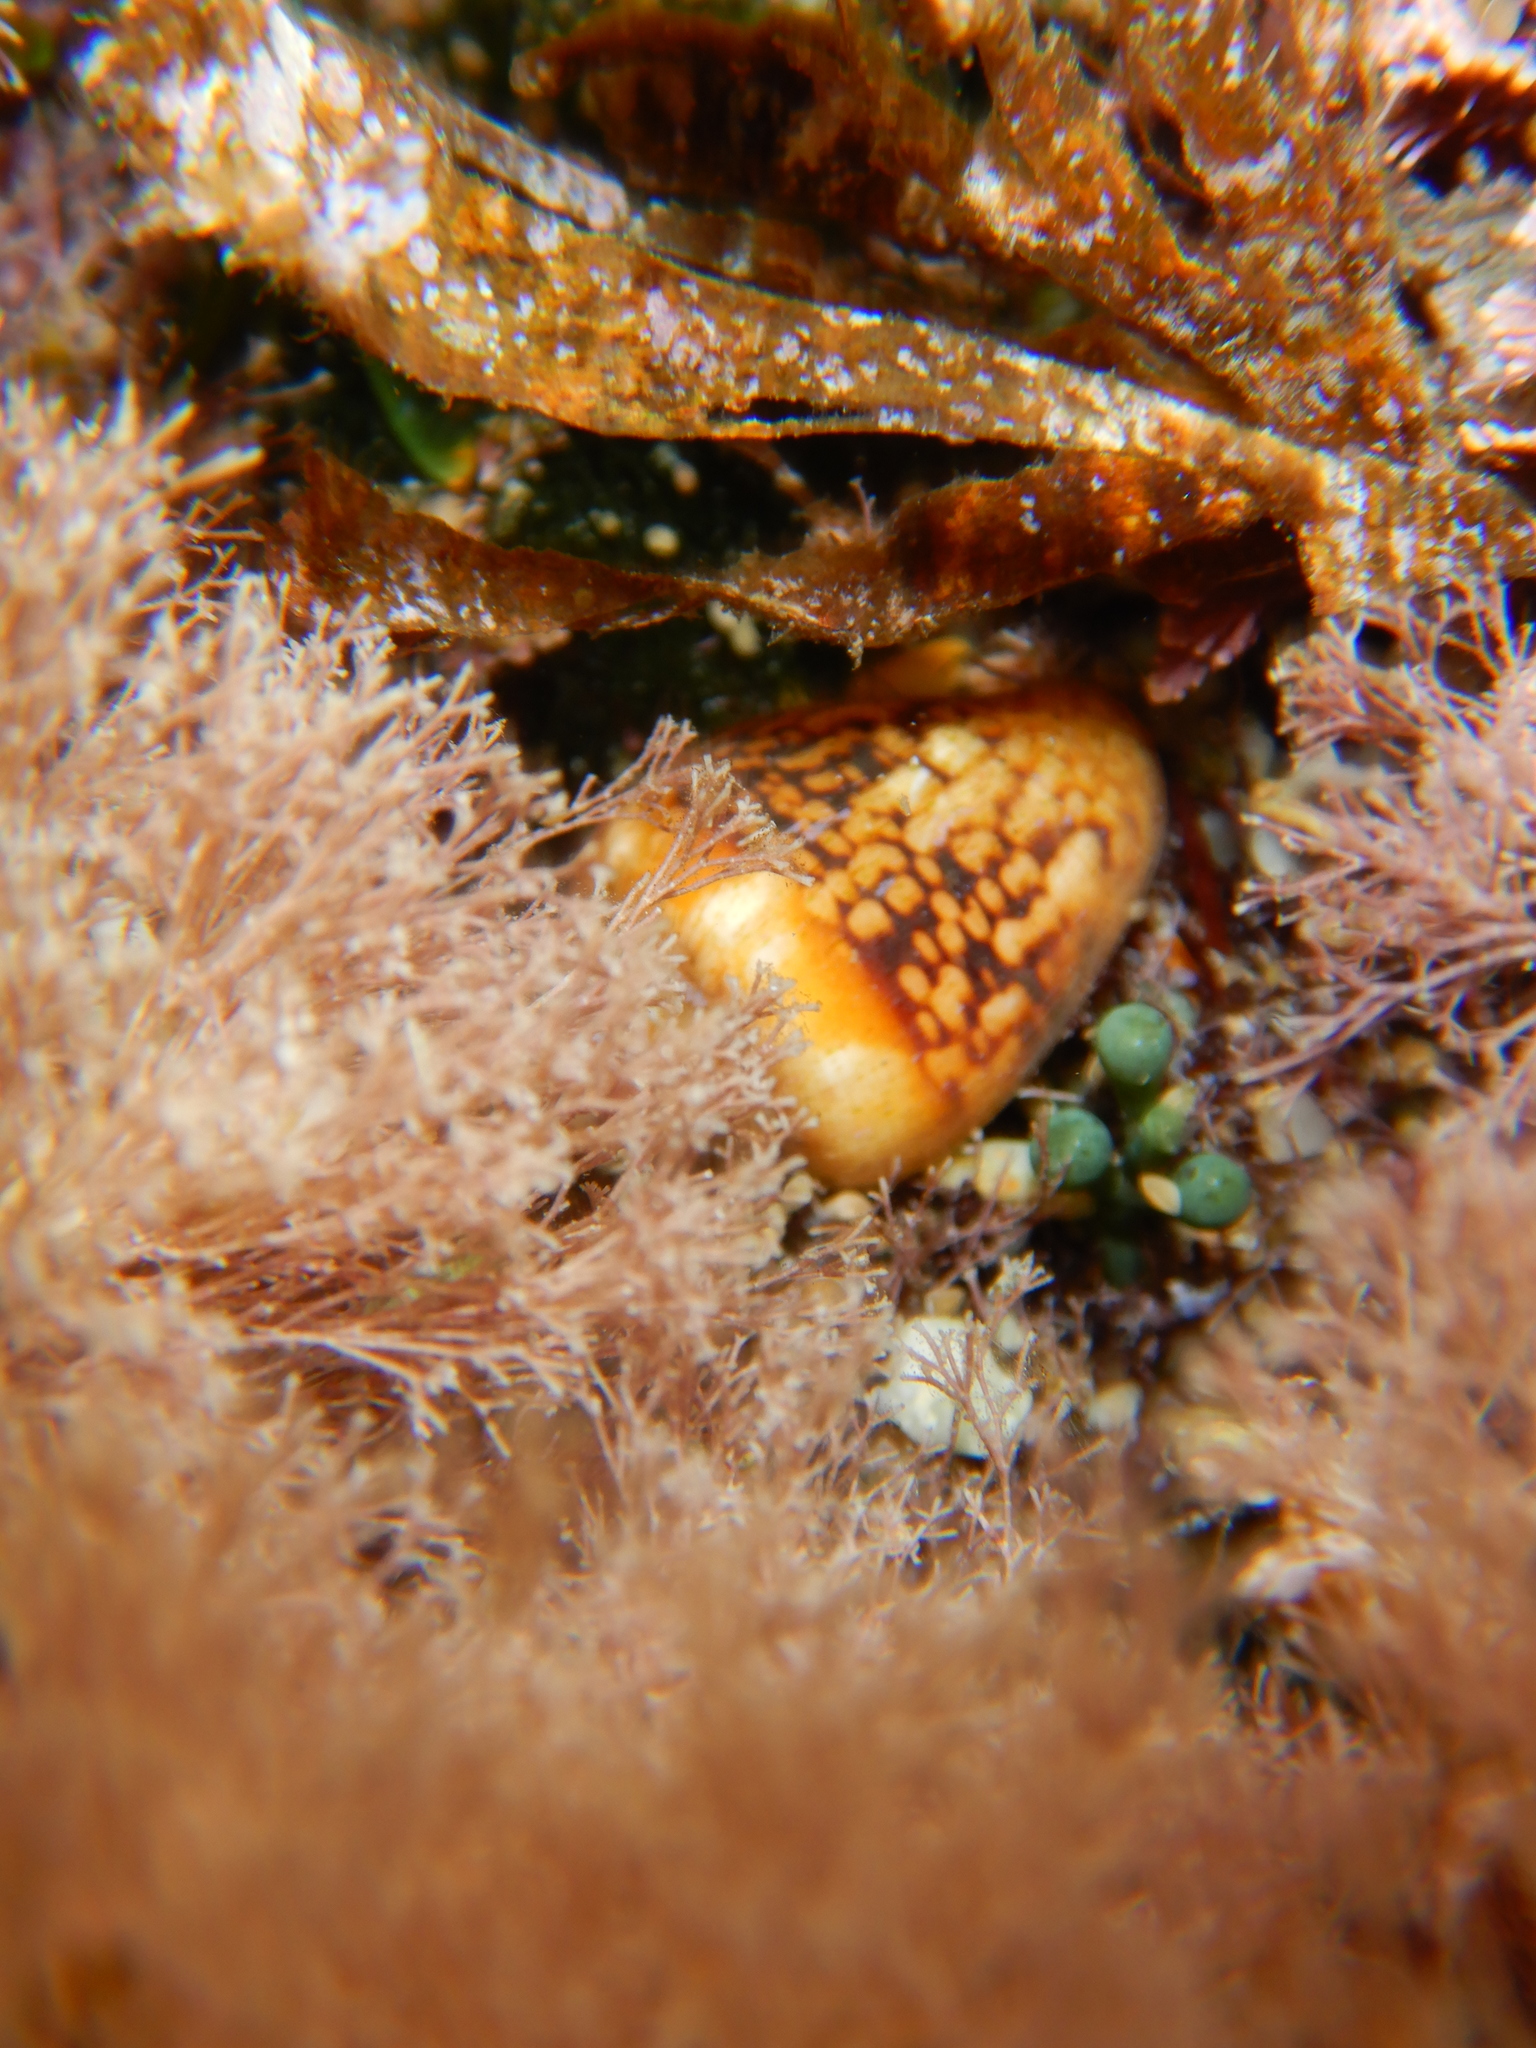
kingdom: Animalia
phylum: Mollusca
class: Gastropoda
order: Neogastropoda
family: Columbellidae
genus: Columbella
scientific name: Columbella rustica
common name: Rustic dove shell
